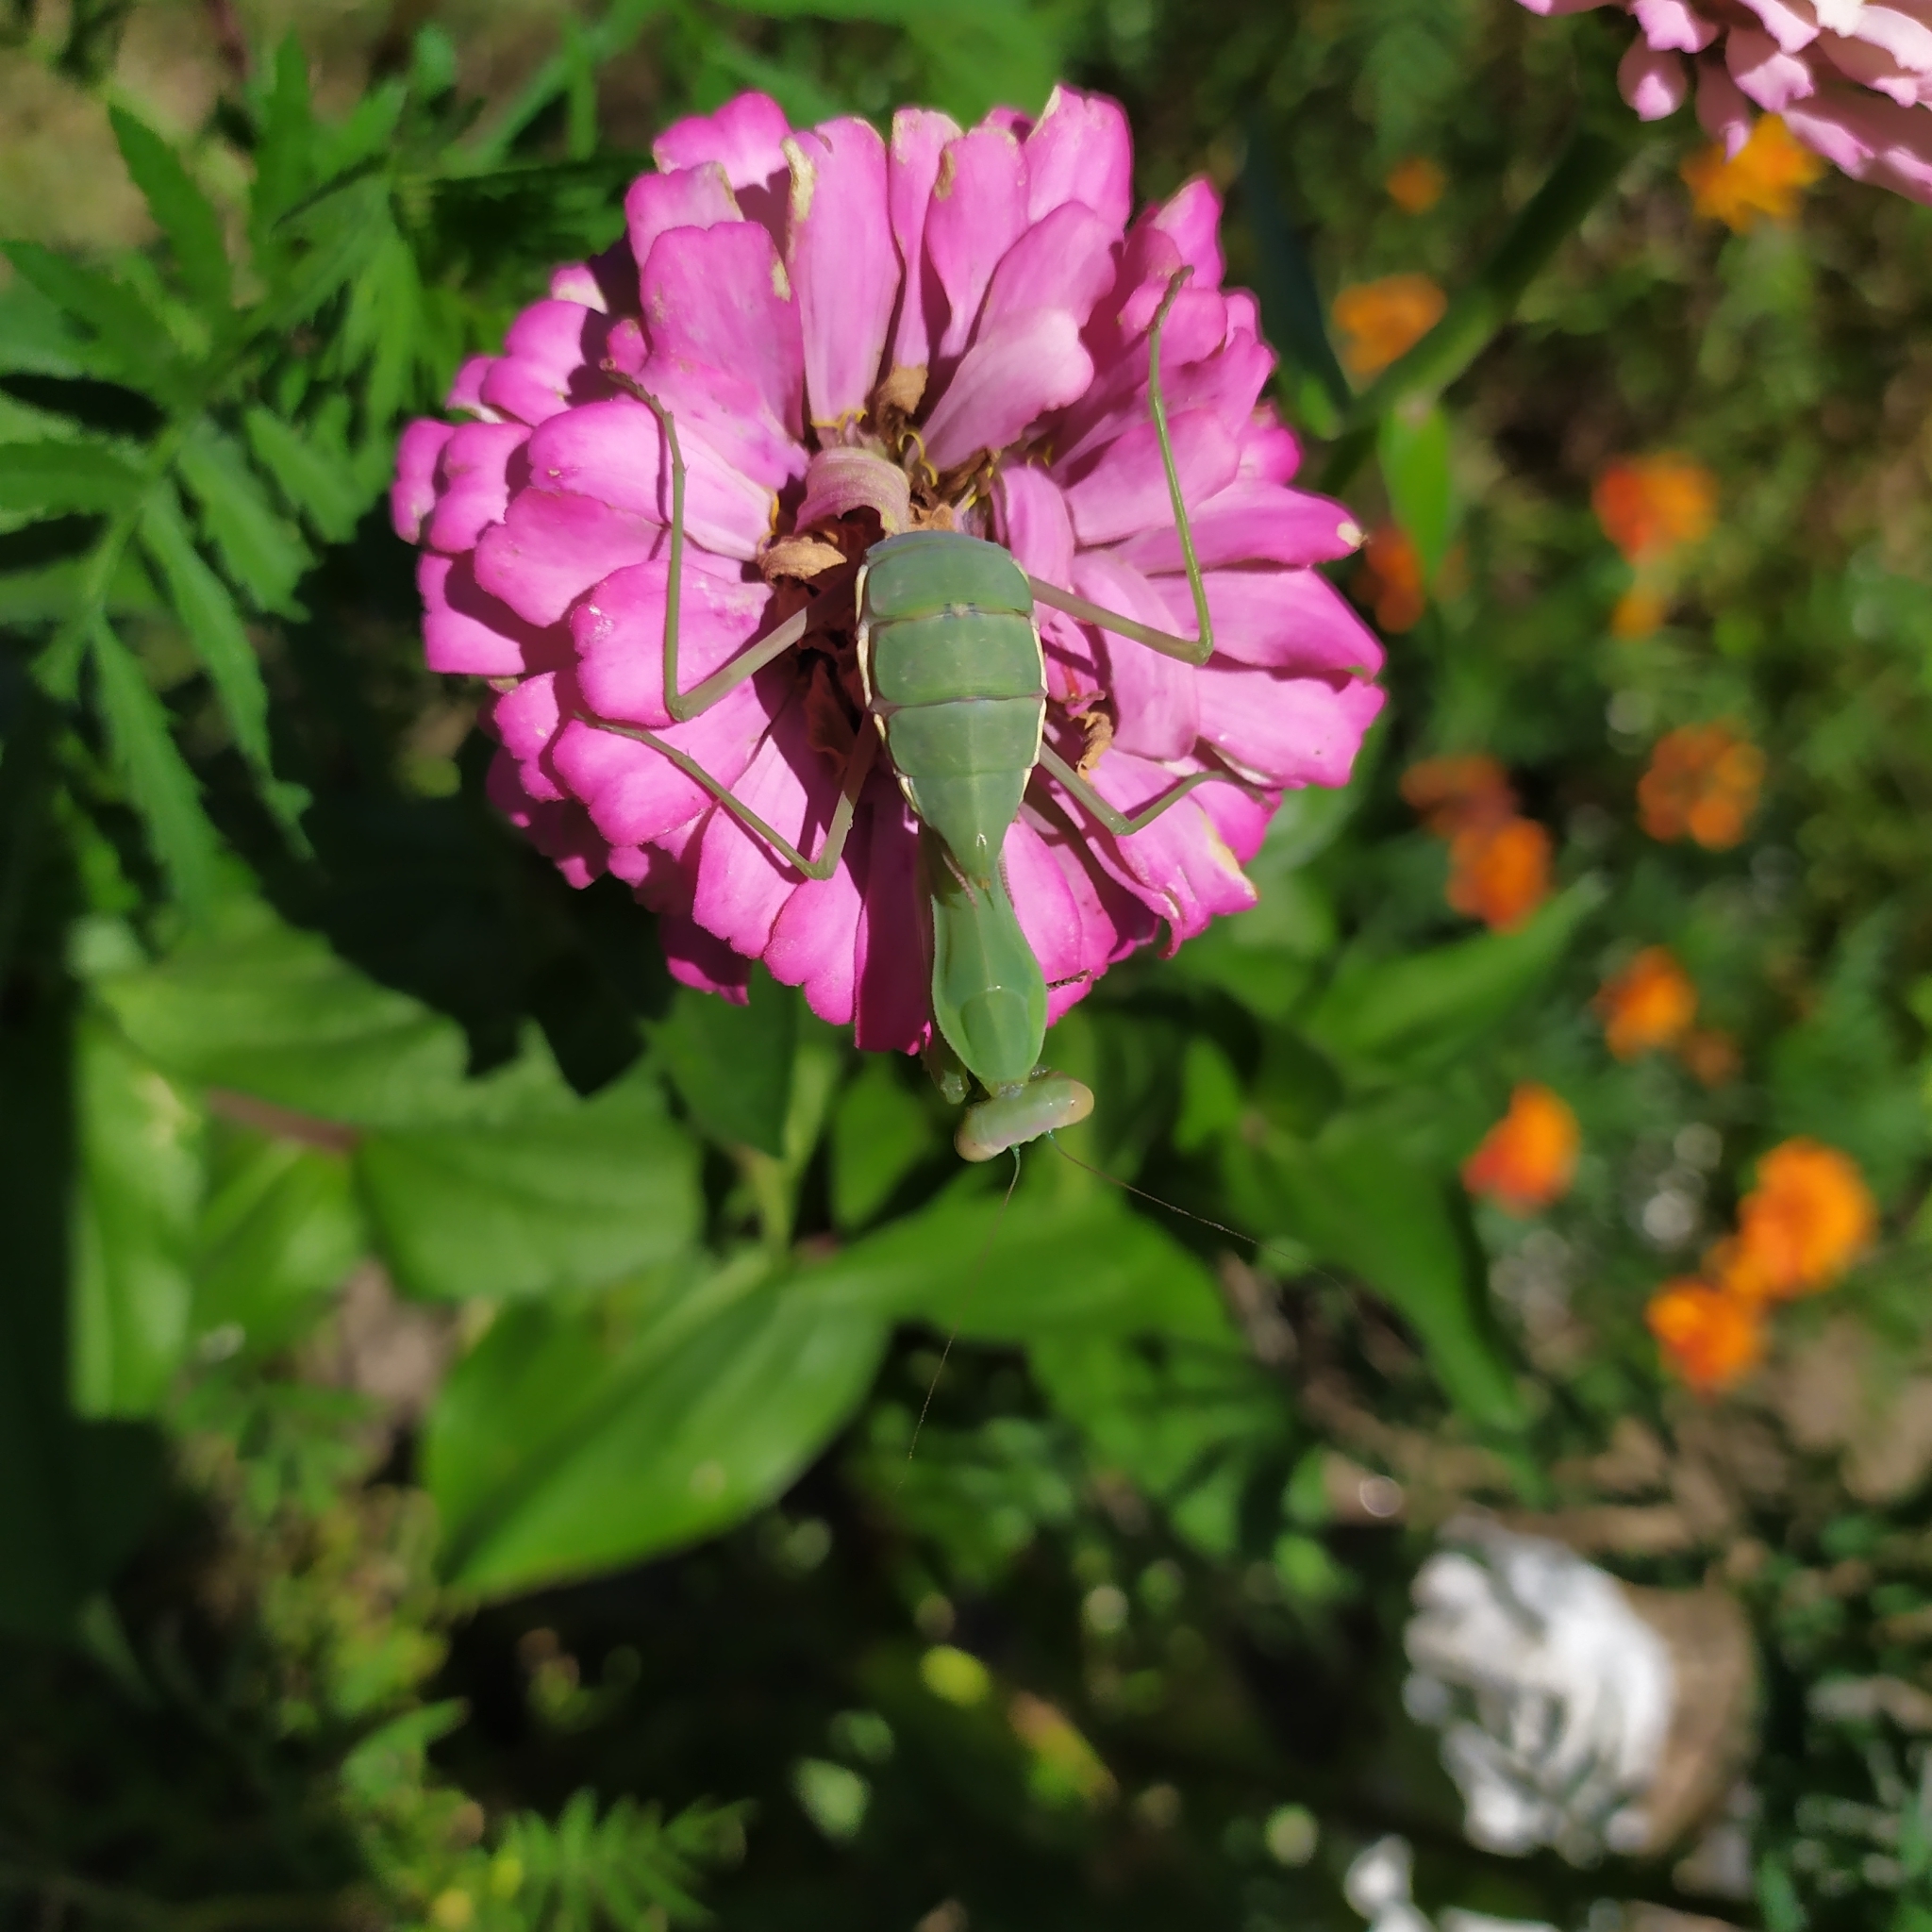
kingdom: Animalia
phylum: Arthropoda
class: Insecta
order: Mantodea
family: Mantidae
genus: Hierodula
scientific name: Hierodula transcaucasica
